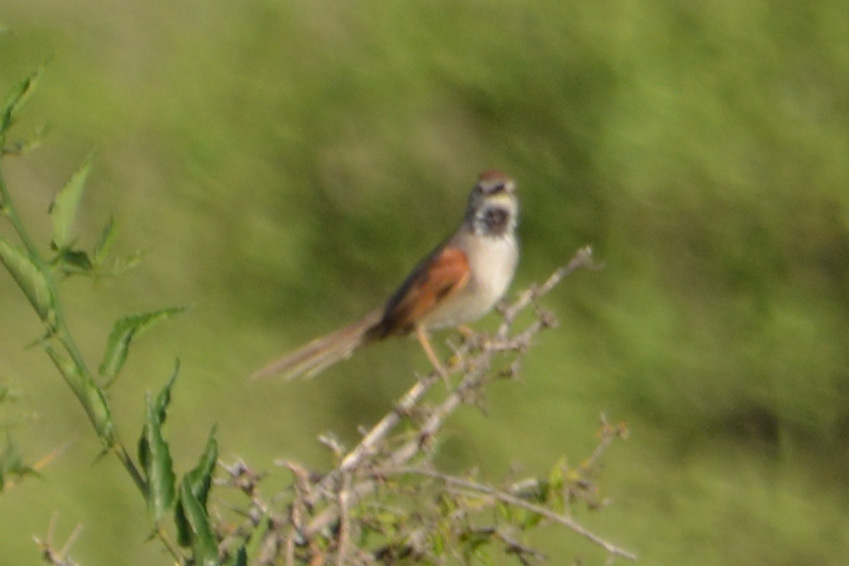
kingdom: Animalia
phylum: Chordata
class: Aves
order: Passeriformes
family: Furnariidae
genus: Synallaxis
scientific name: Synallaxis albescens
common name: Pale-breasted spinetail
